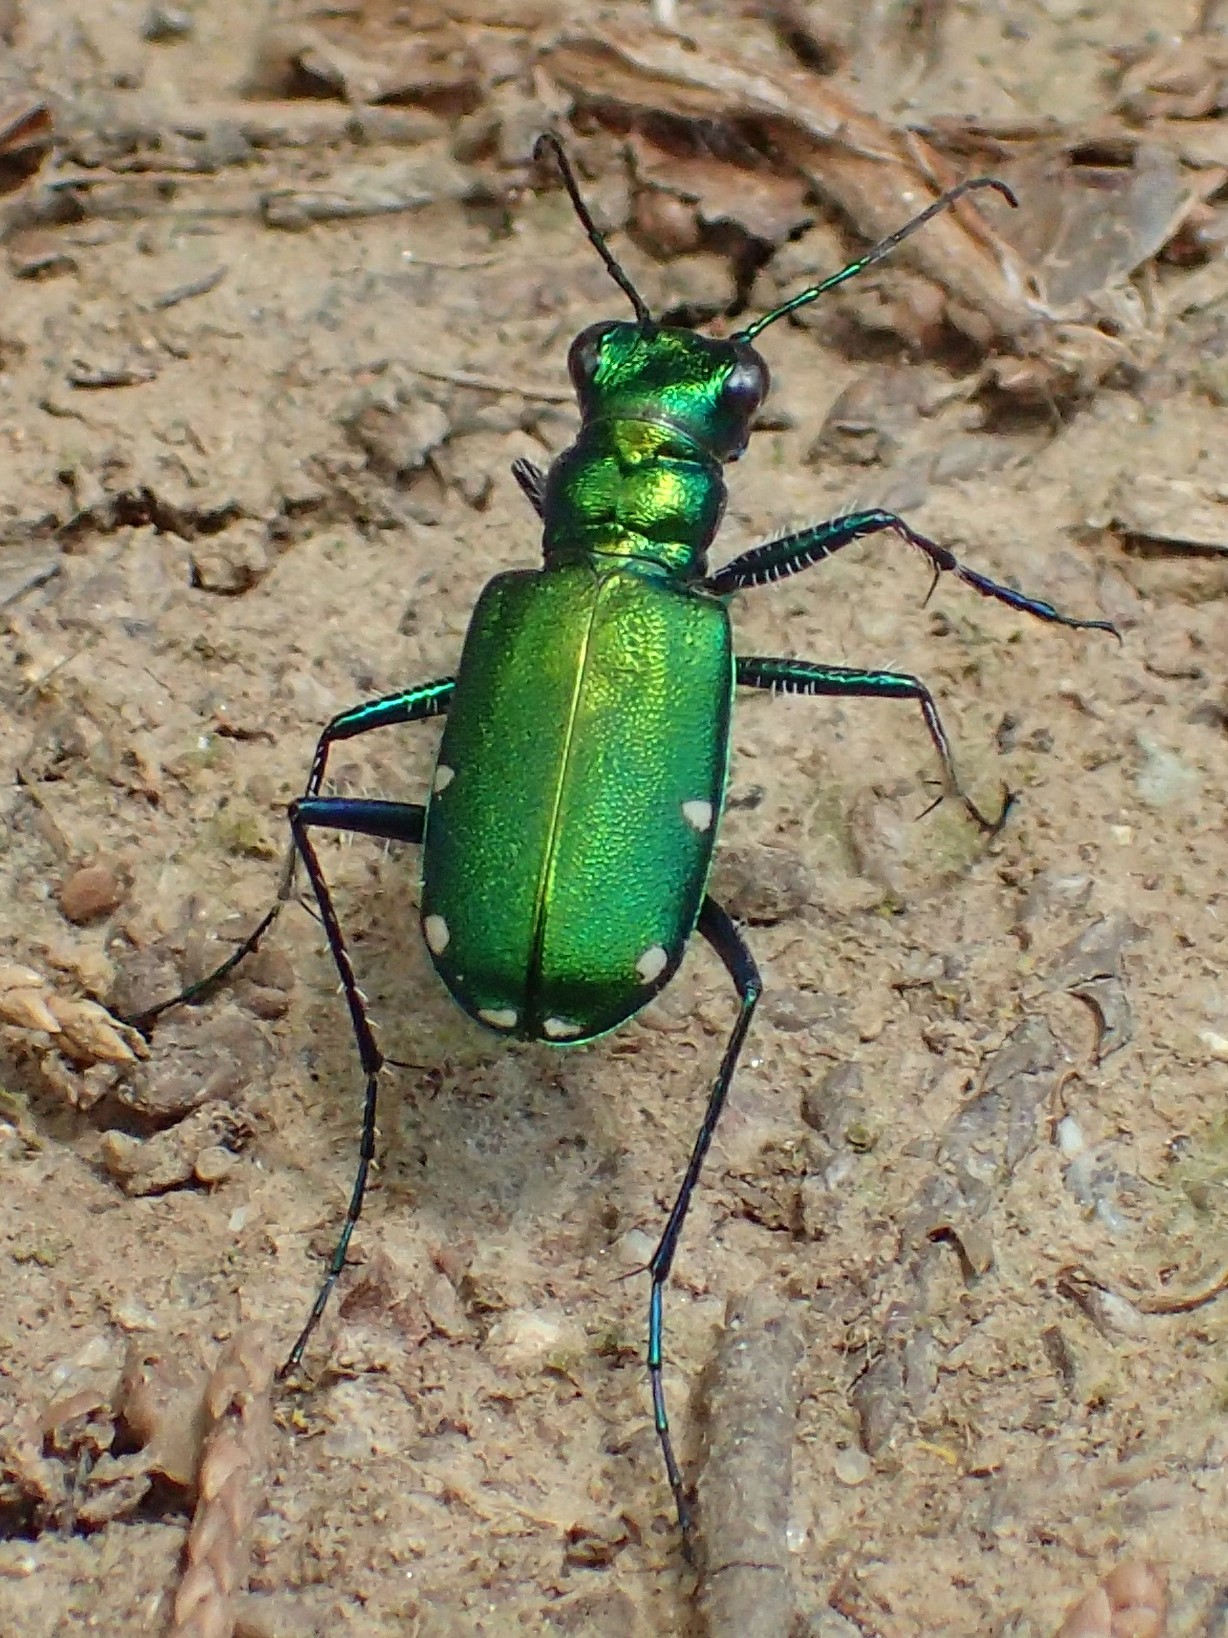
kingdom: Animalia
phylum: Arthropoda
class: Insecta
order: Coleoptera
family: Carabidae
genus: Cicindela
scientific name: Cicindela sexguttata
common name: Six-spotted tiger beetle
